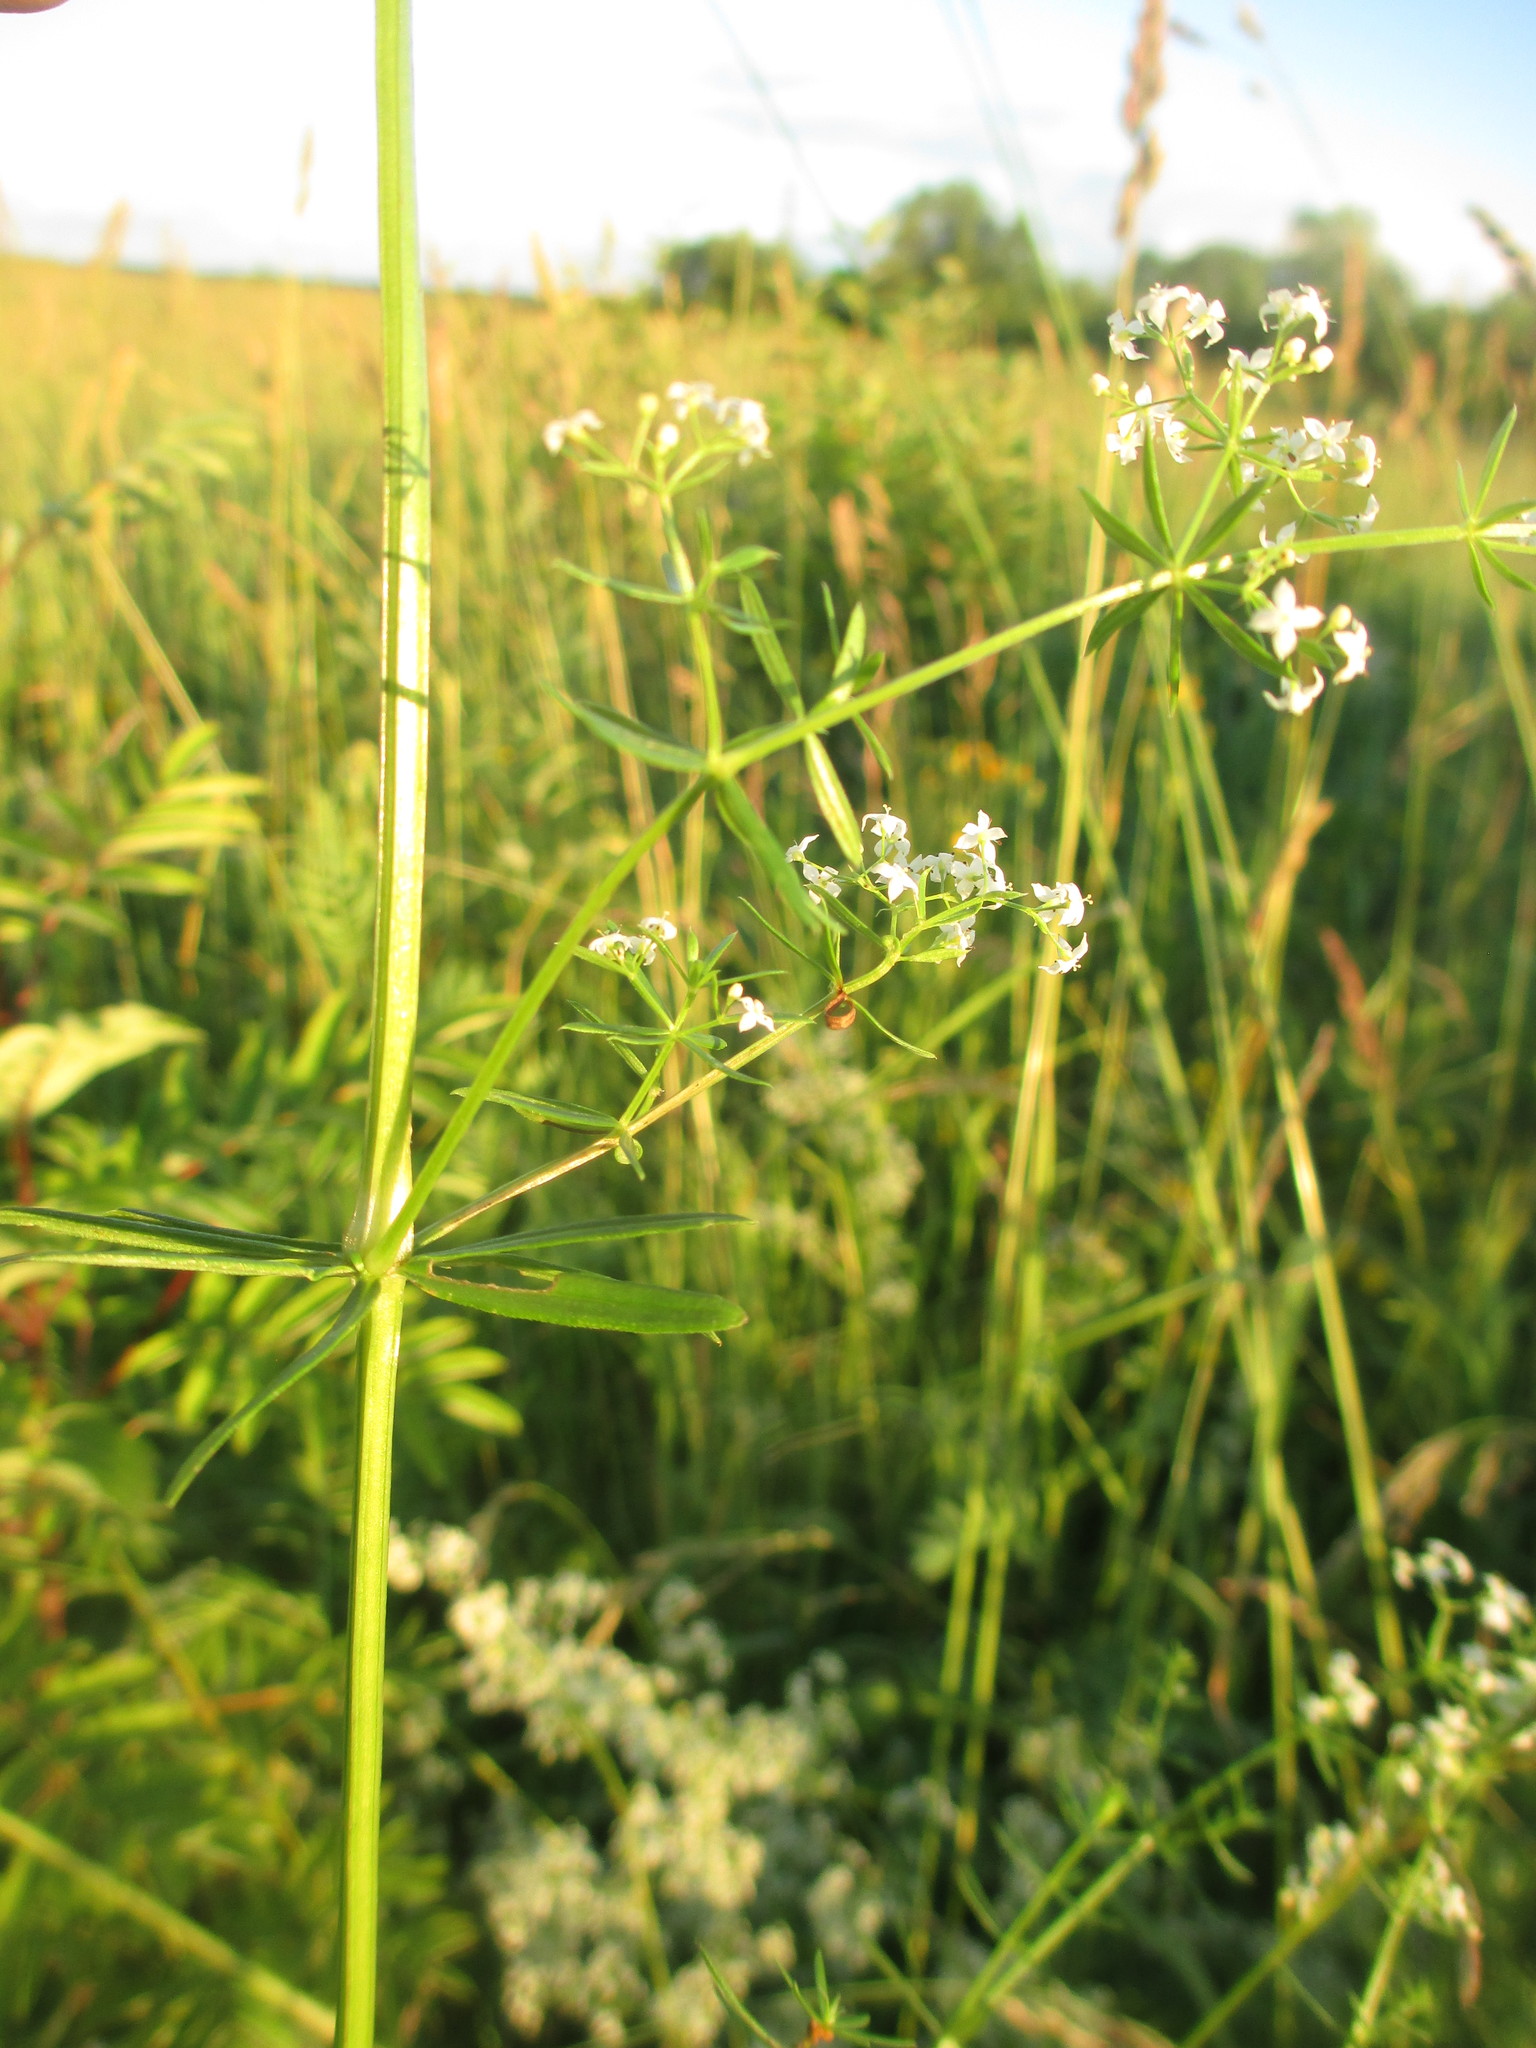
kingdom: Plantae
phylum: Tracheophyta
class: Magnoliopsida
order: Gentianales
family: Rubiaceae
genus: Galium
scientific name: Galium mollugo
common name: Hedge bedstraw
